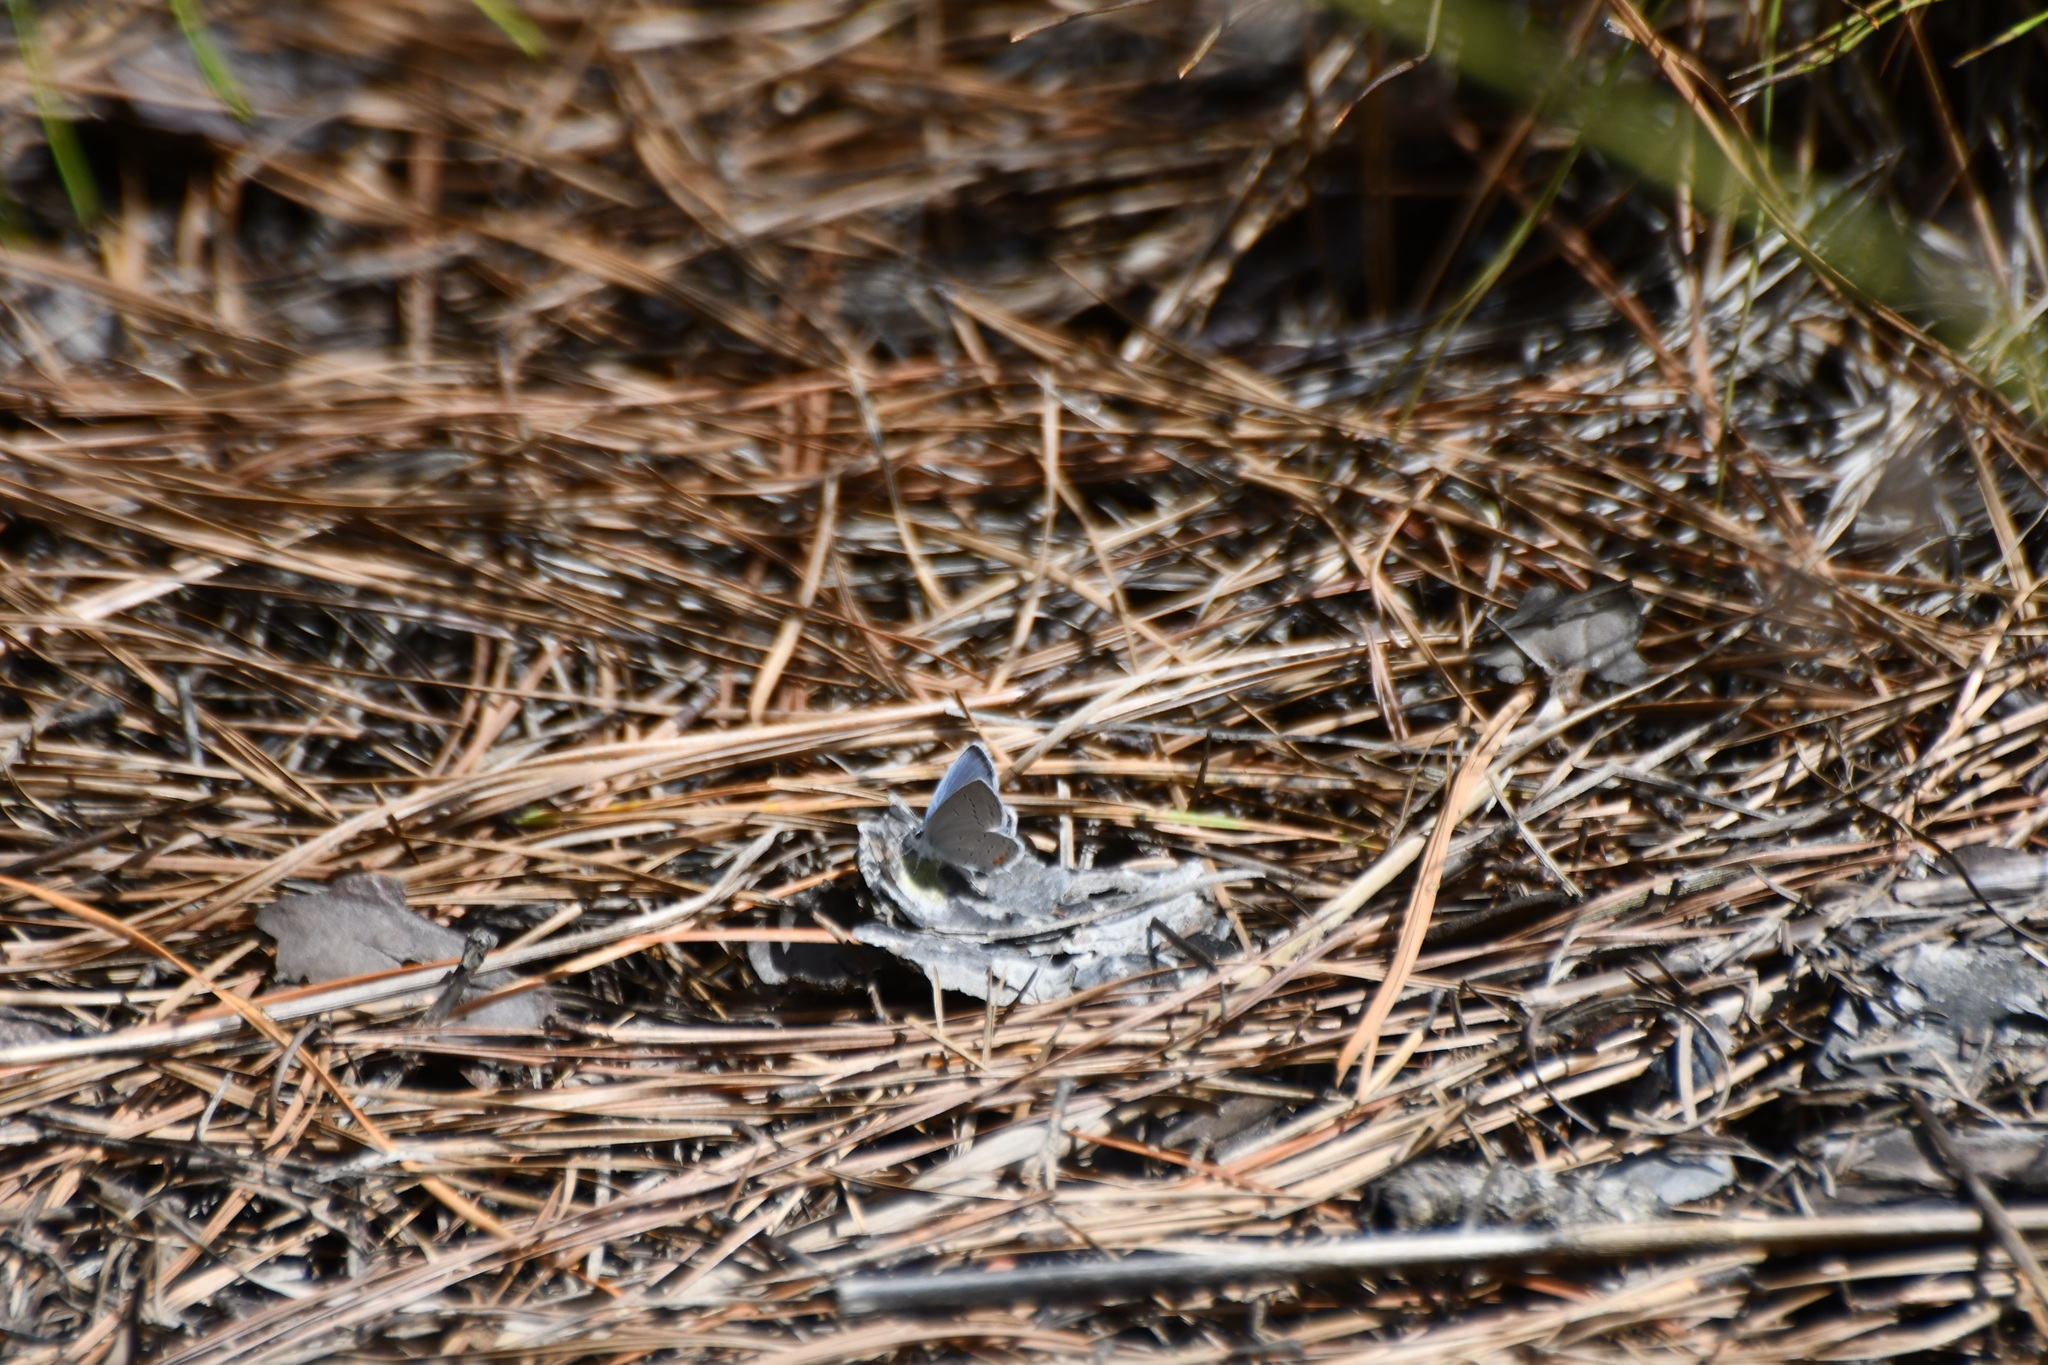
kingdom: Animalia
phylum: Arthropoda
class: Insecta
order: Lepidoptera
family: Lycaenidae
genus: Elkalyce
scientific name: Elkalyce comyntas
